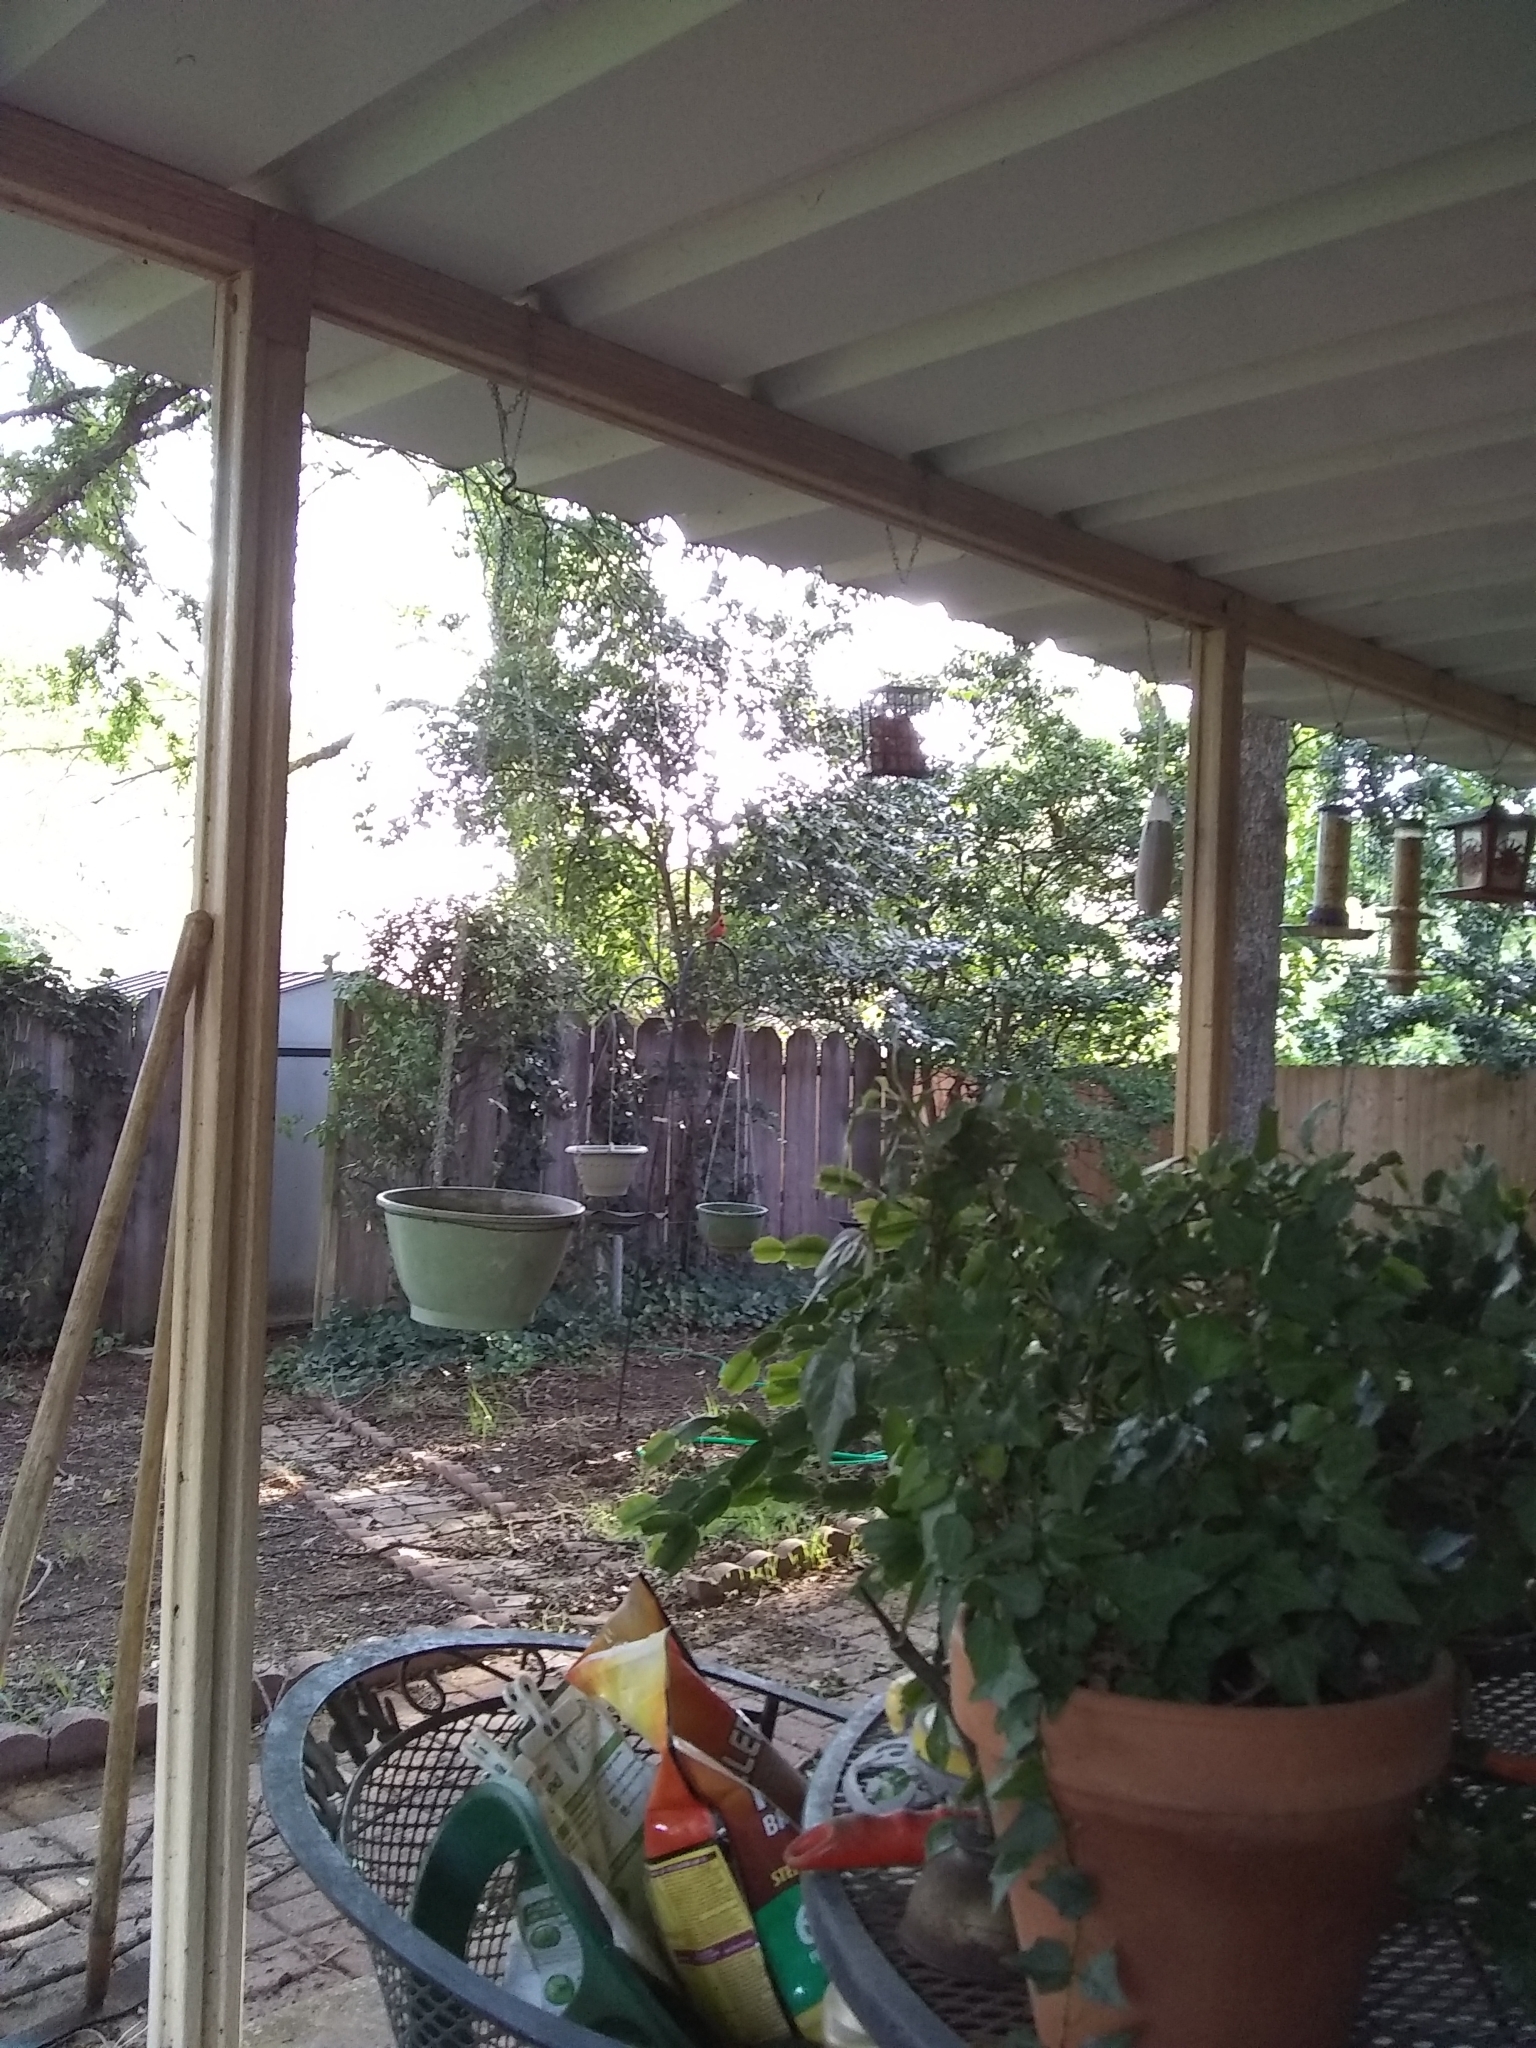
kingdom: Animalia
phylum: Chordata
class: Aves
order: Passeriformes
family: Cardinalidae
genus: Cardinalis
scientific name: Cardinalis cardinalis
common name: Northern cardinal
